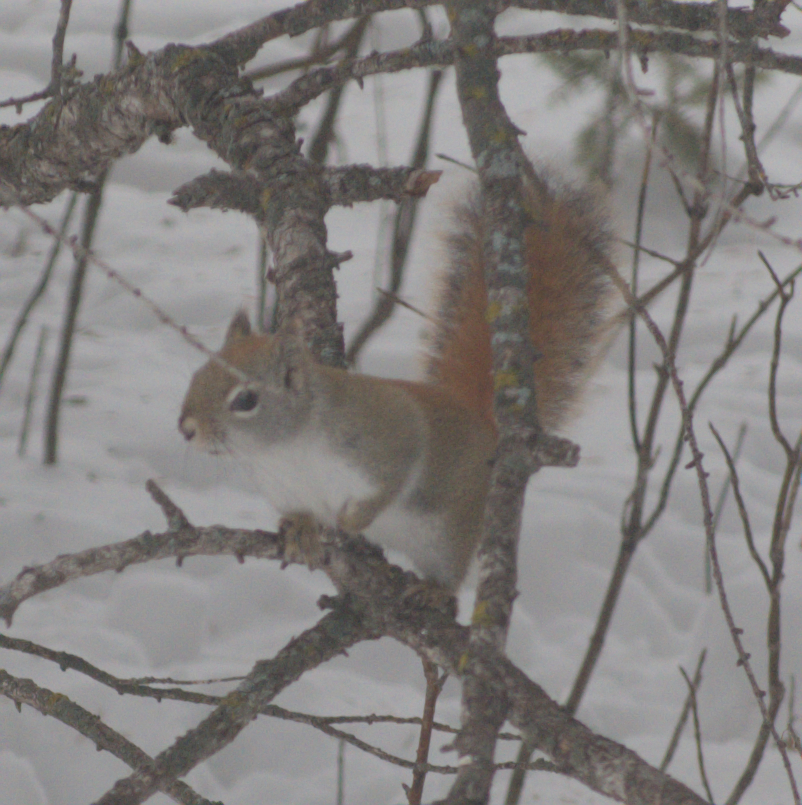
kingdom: Animalia
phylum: Chordata
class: Mammalia
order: Rodentia
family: Sciuridae
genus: Tamiasciurus
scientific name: Tamiasciurus hudsonicus
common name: Red squirrel
